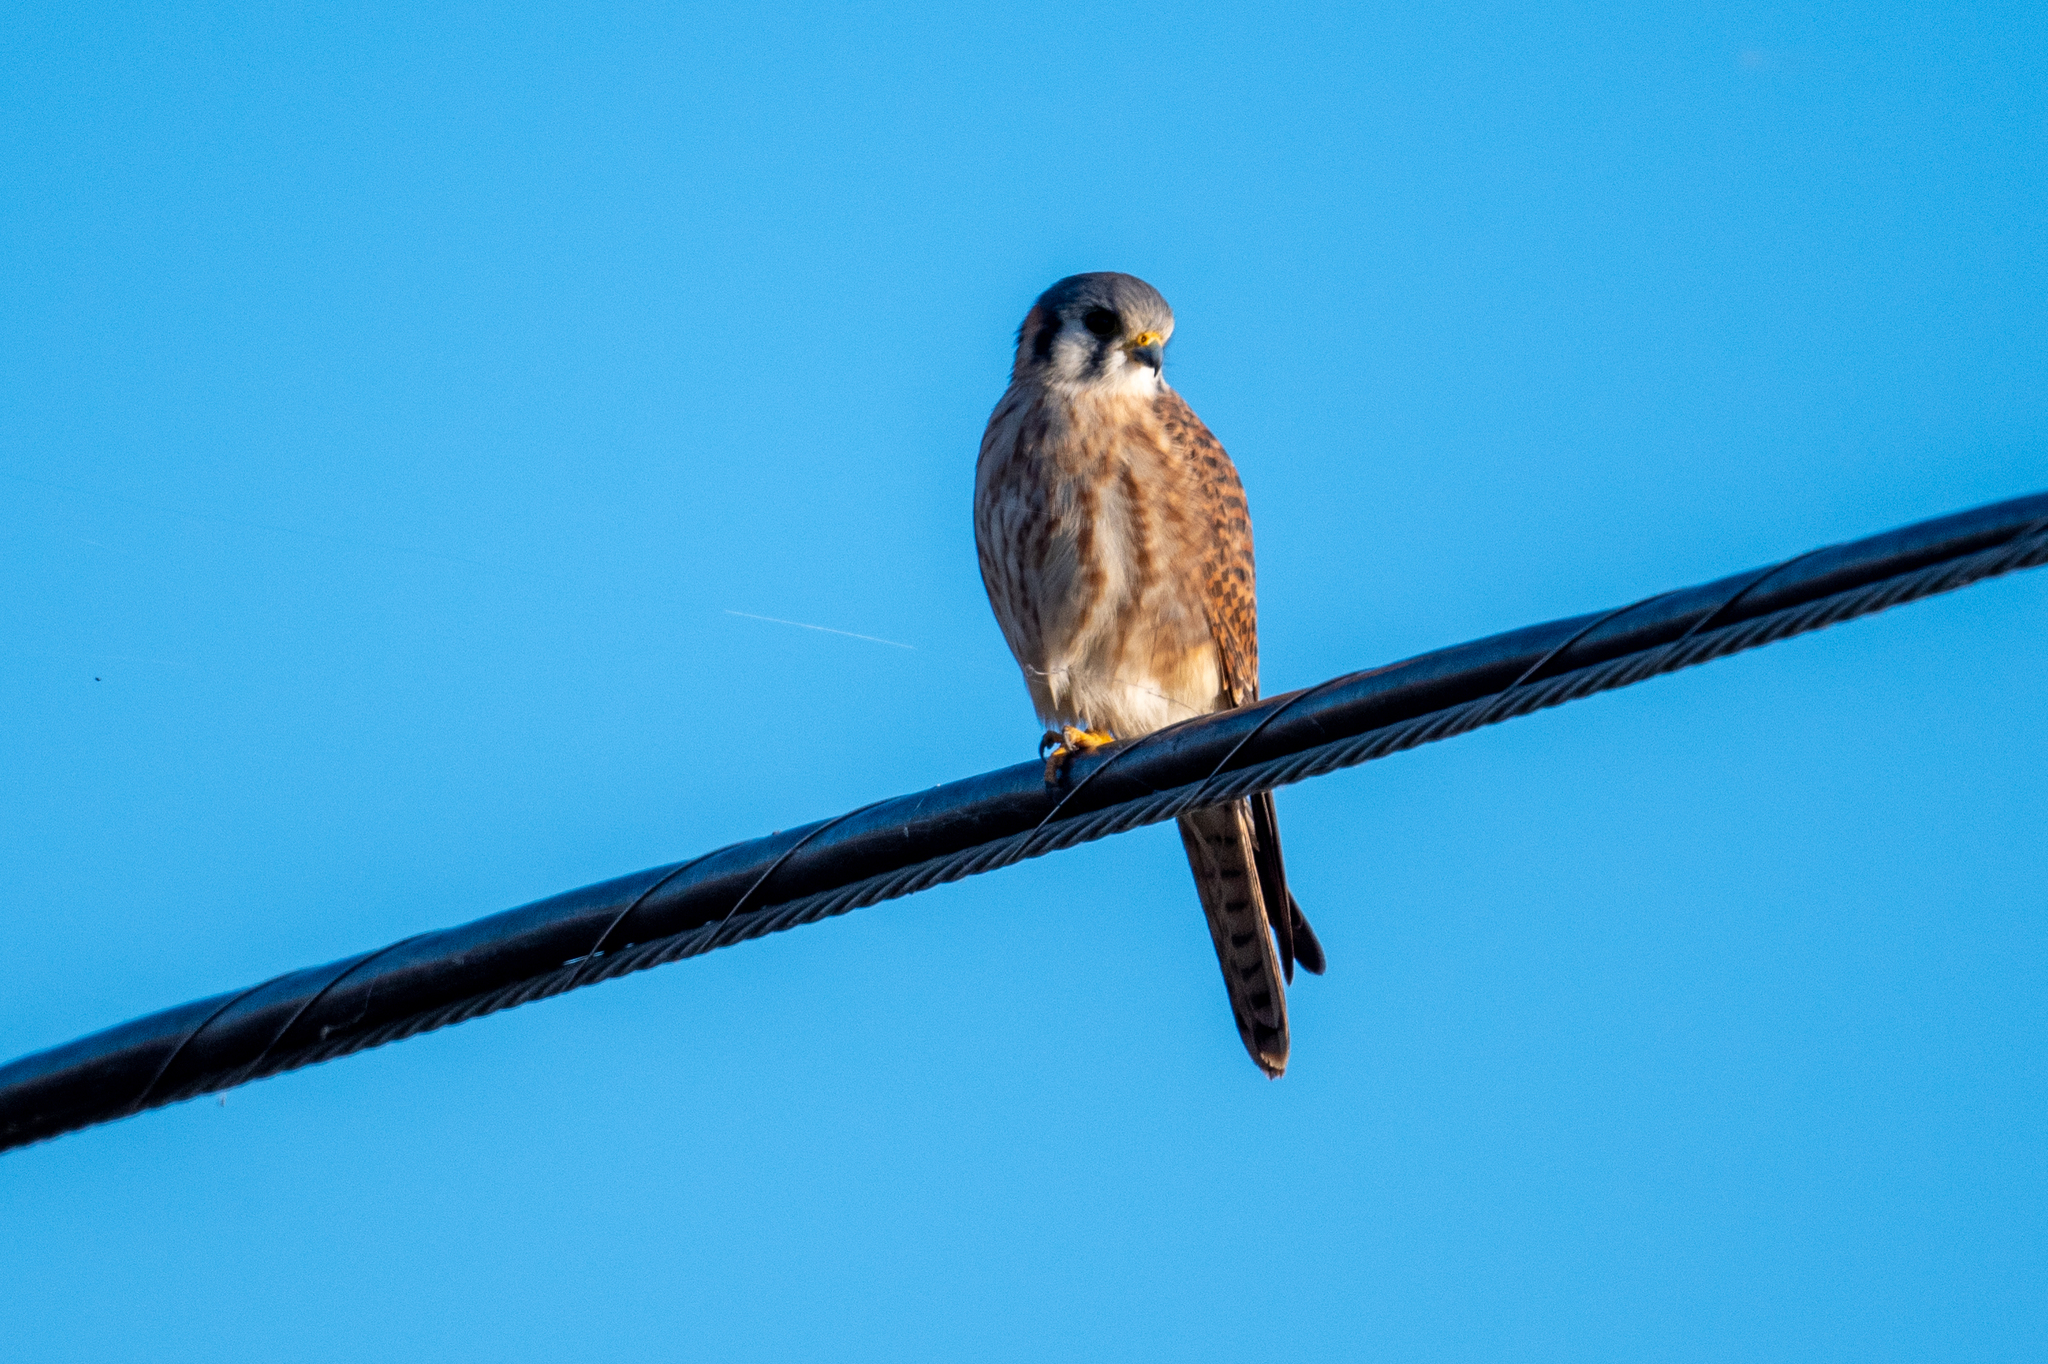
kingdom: Animalia
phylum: Chordata
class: Aves
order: Falconiformes
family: Falconidae
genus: Falco
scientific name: Falco sparverius
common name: American kestrel
